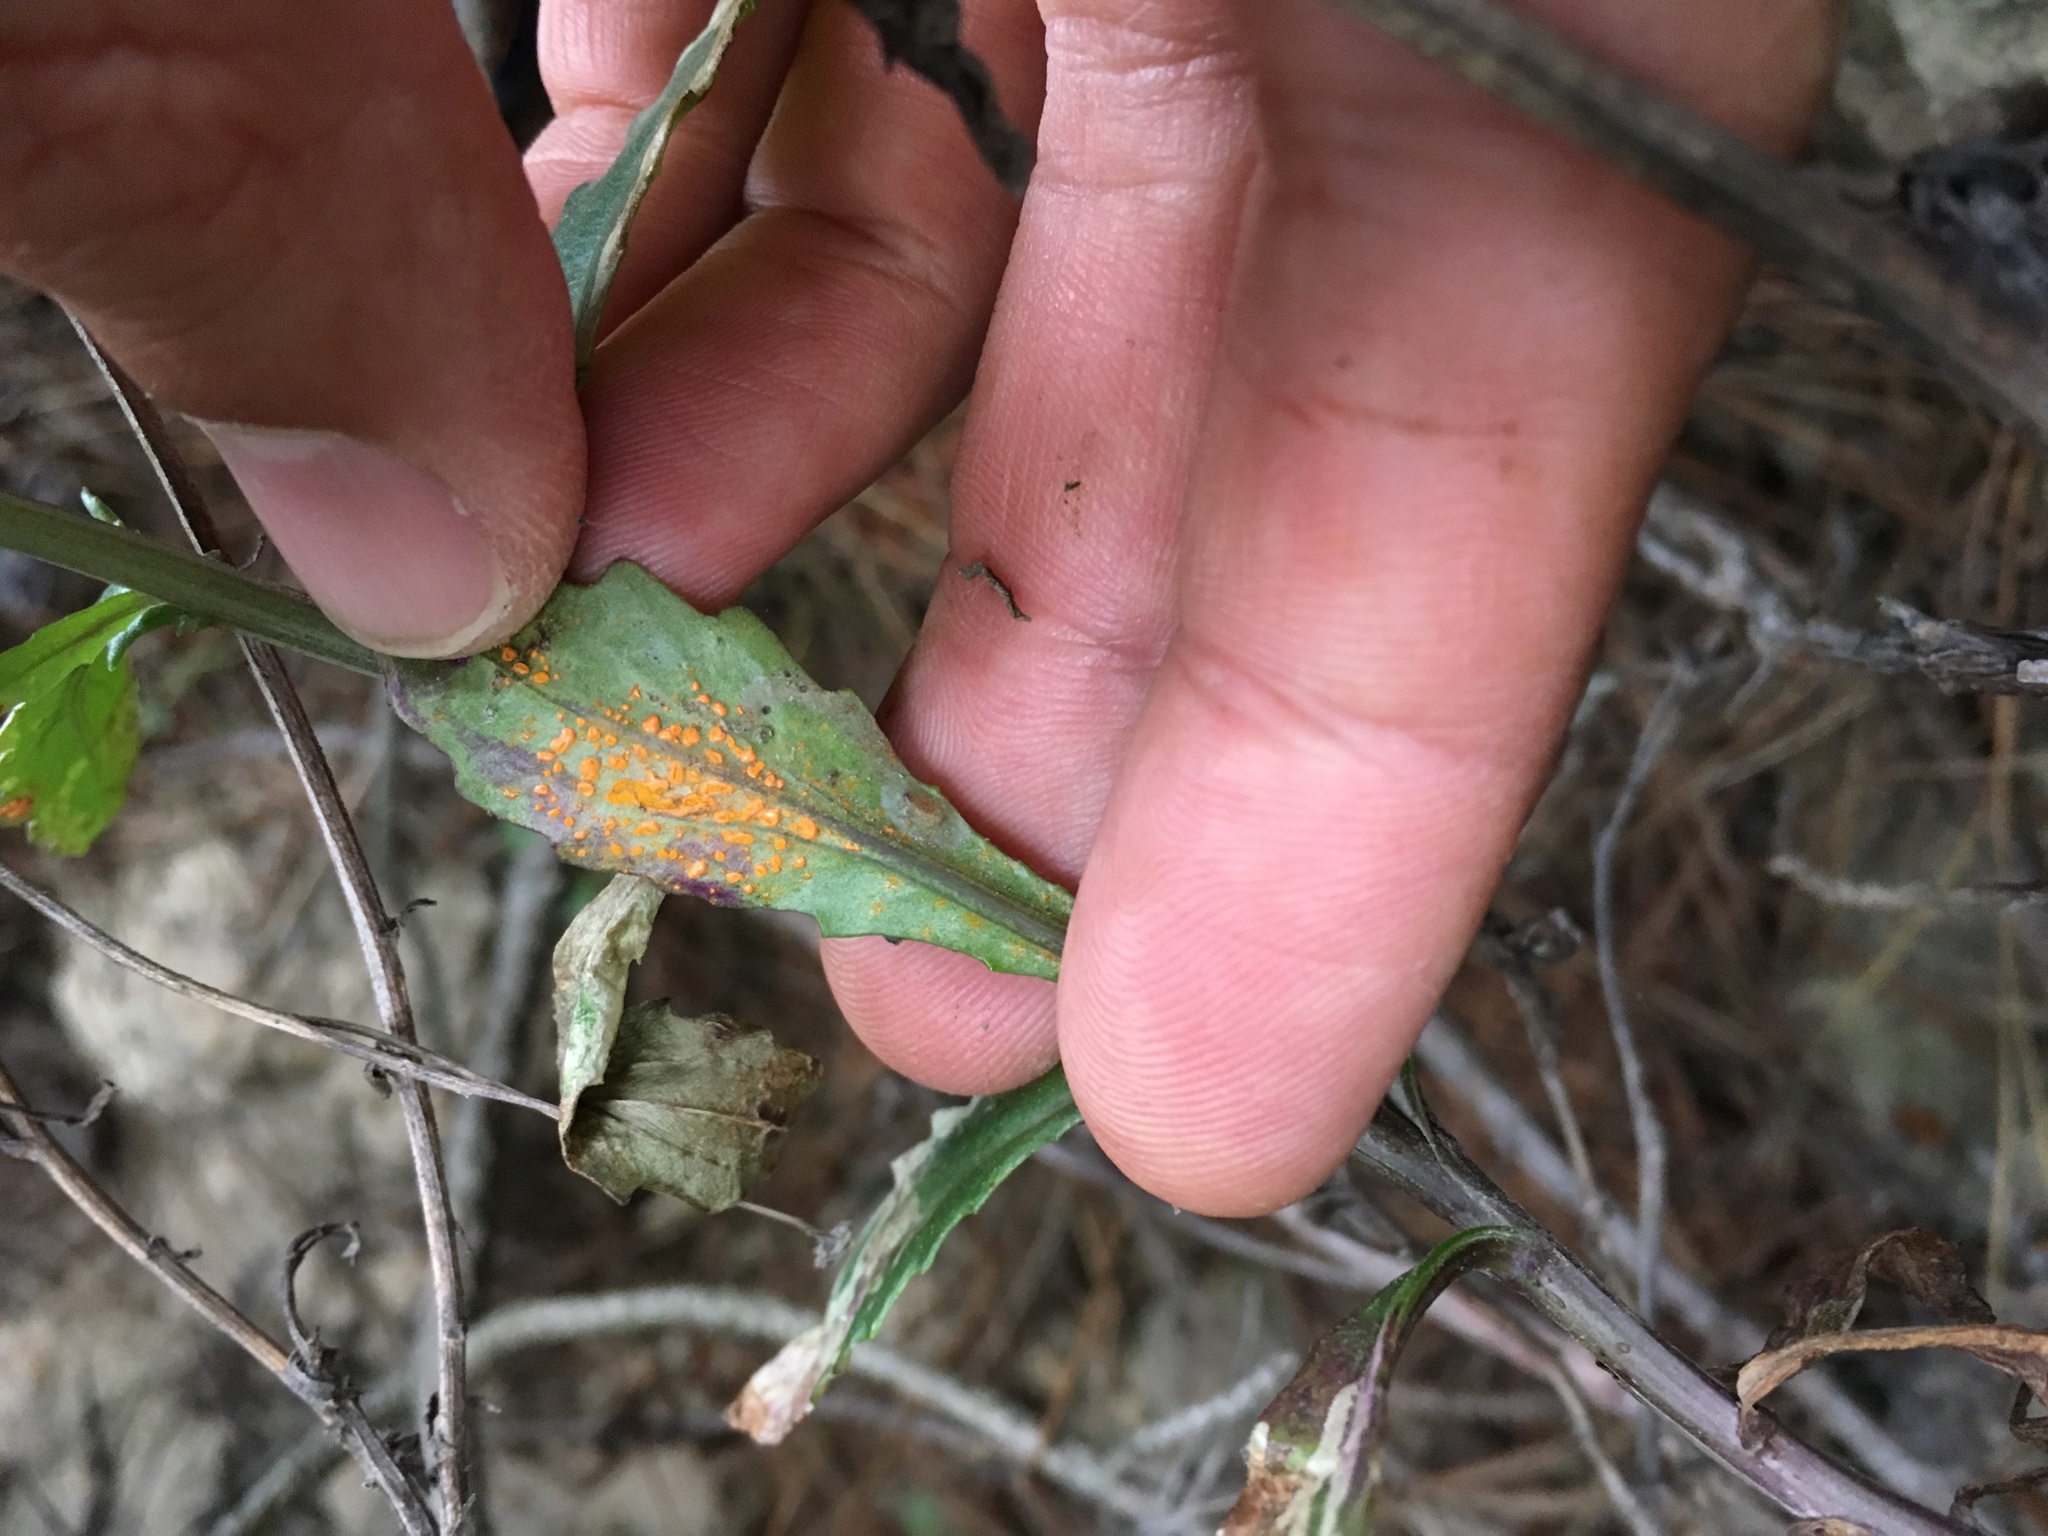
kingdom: Fungi
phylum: Basidiomycota
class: Pucciniomycetes
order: Pucciniales
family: Coleosporiaceae
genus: Coleosporium
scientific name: Coleosporium tussilaginis
